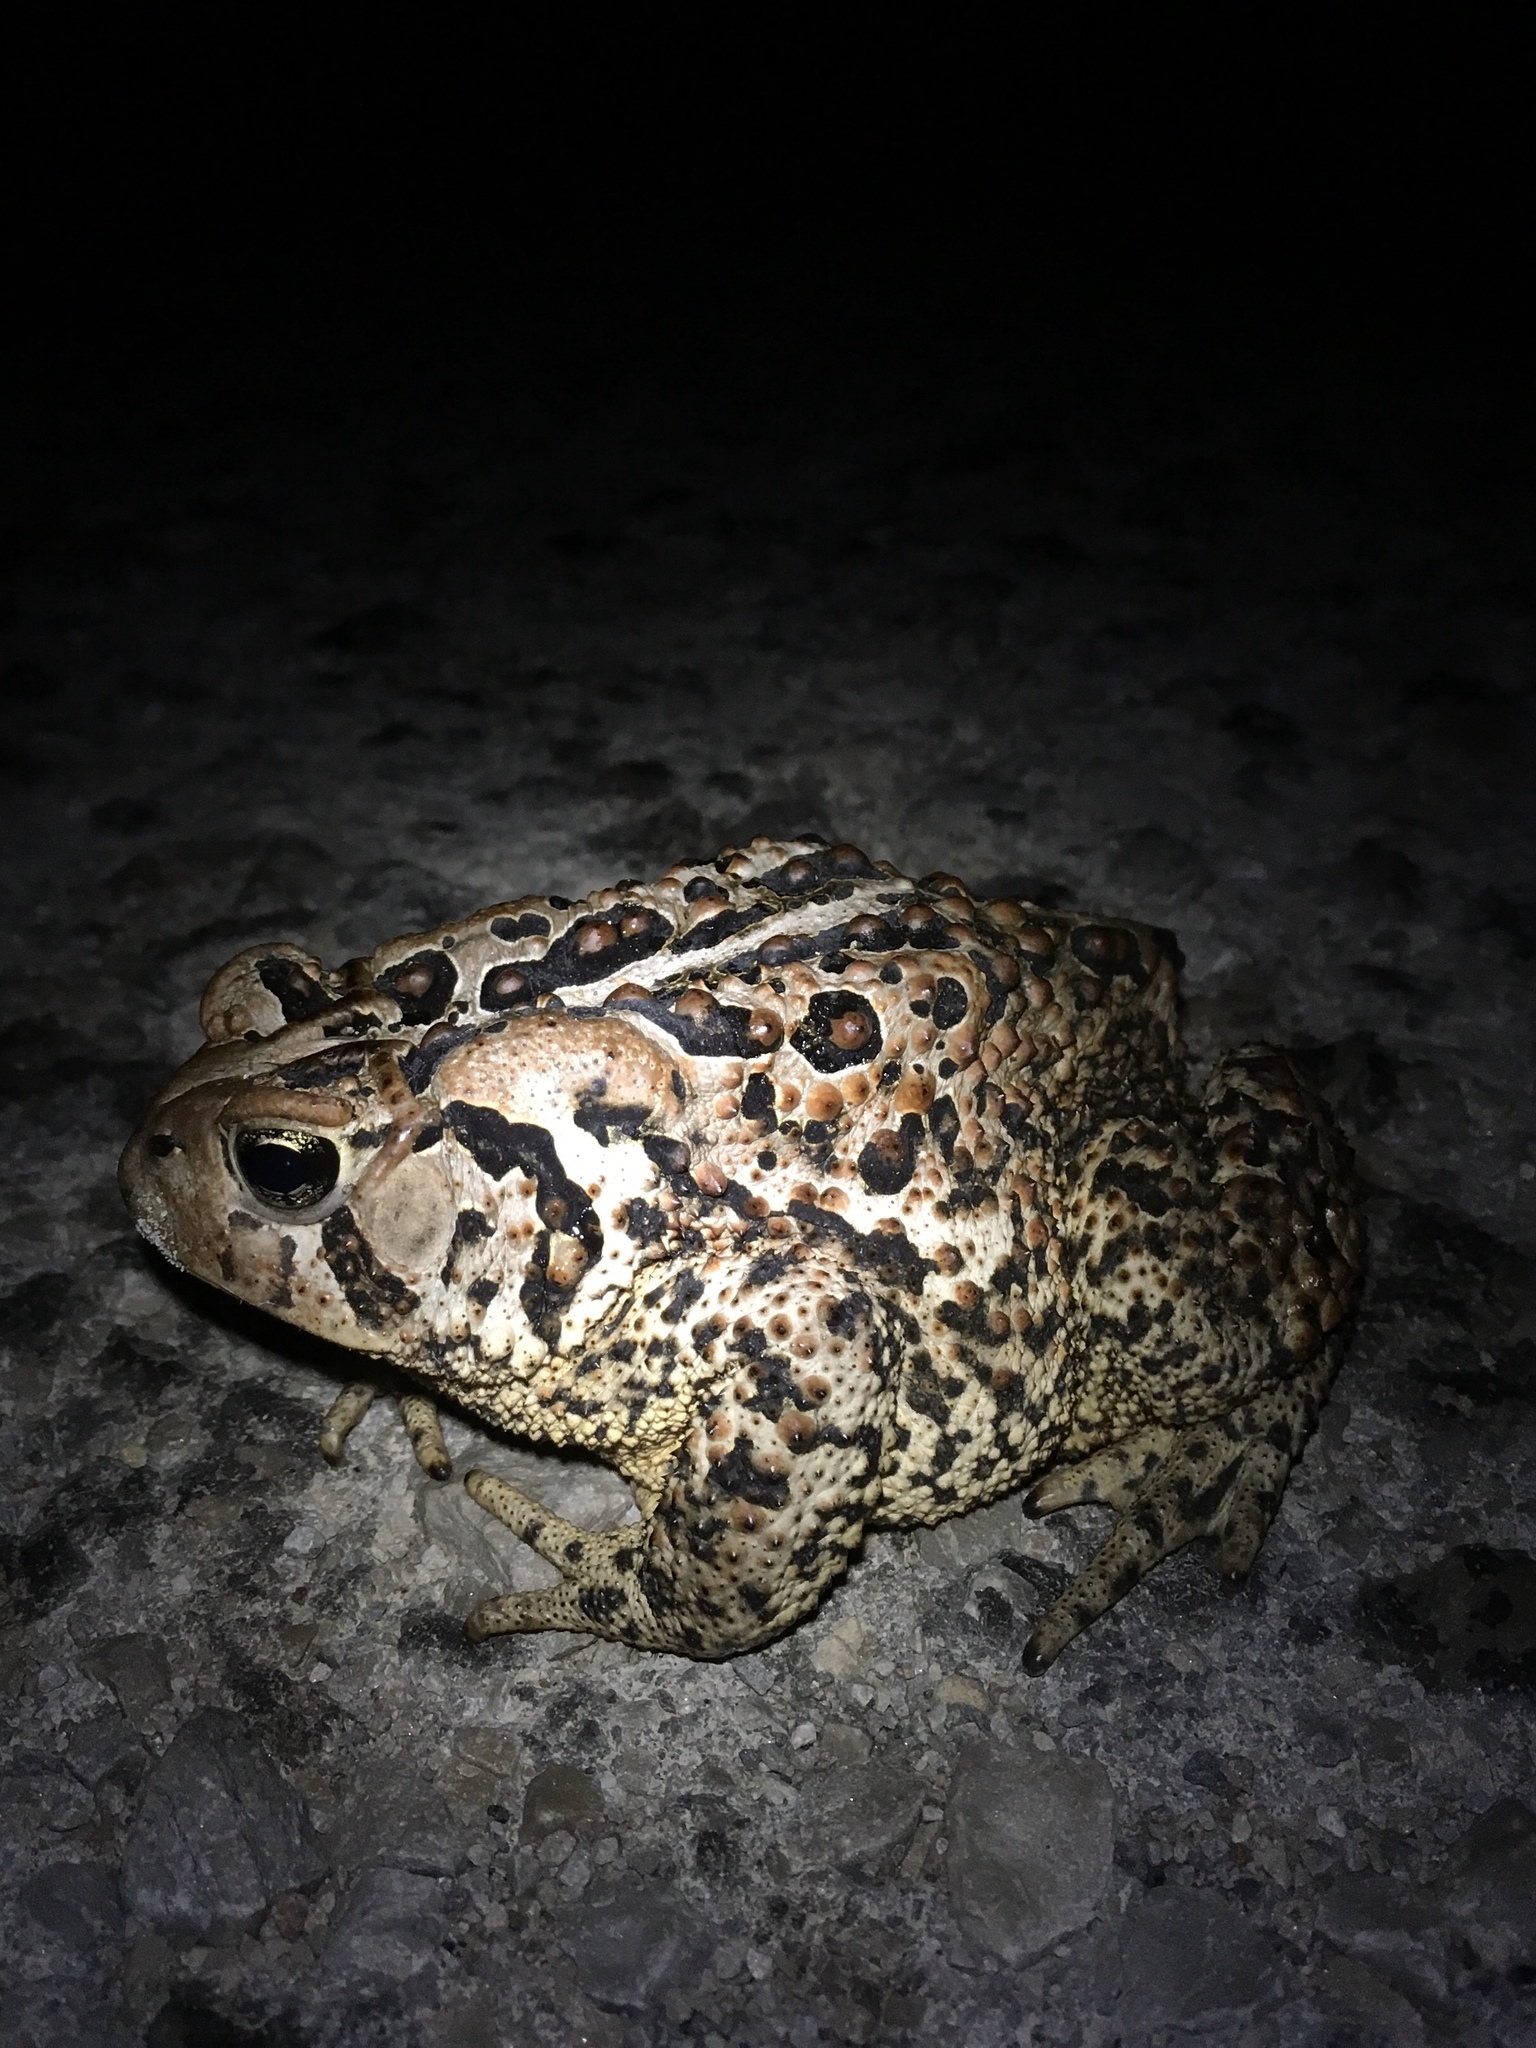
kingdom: Animalia
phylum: Chordata
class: Amphibia
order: Anura
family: Bufonidae
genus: Anaxyrus
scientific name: Anaxyrus americanus
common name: American toad
